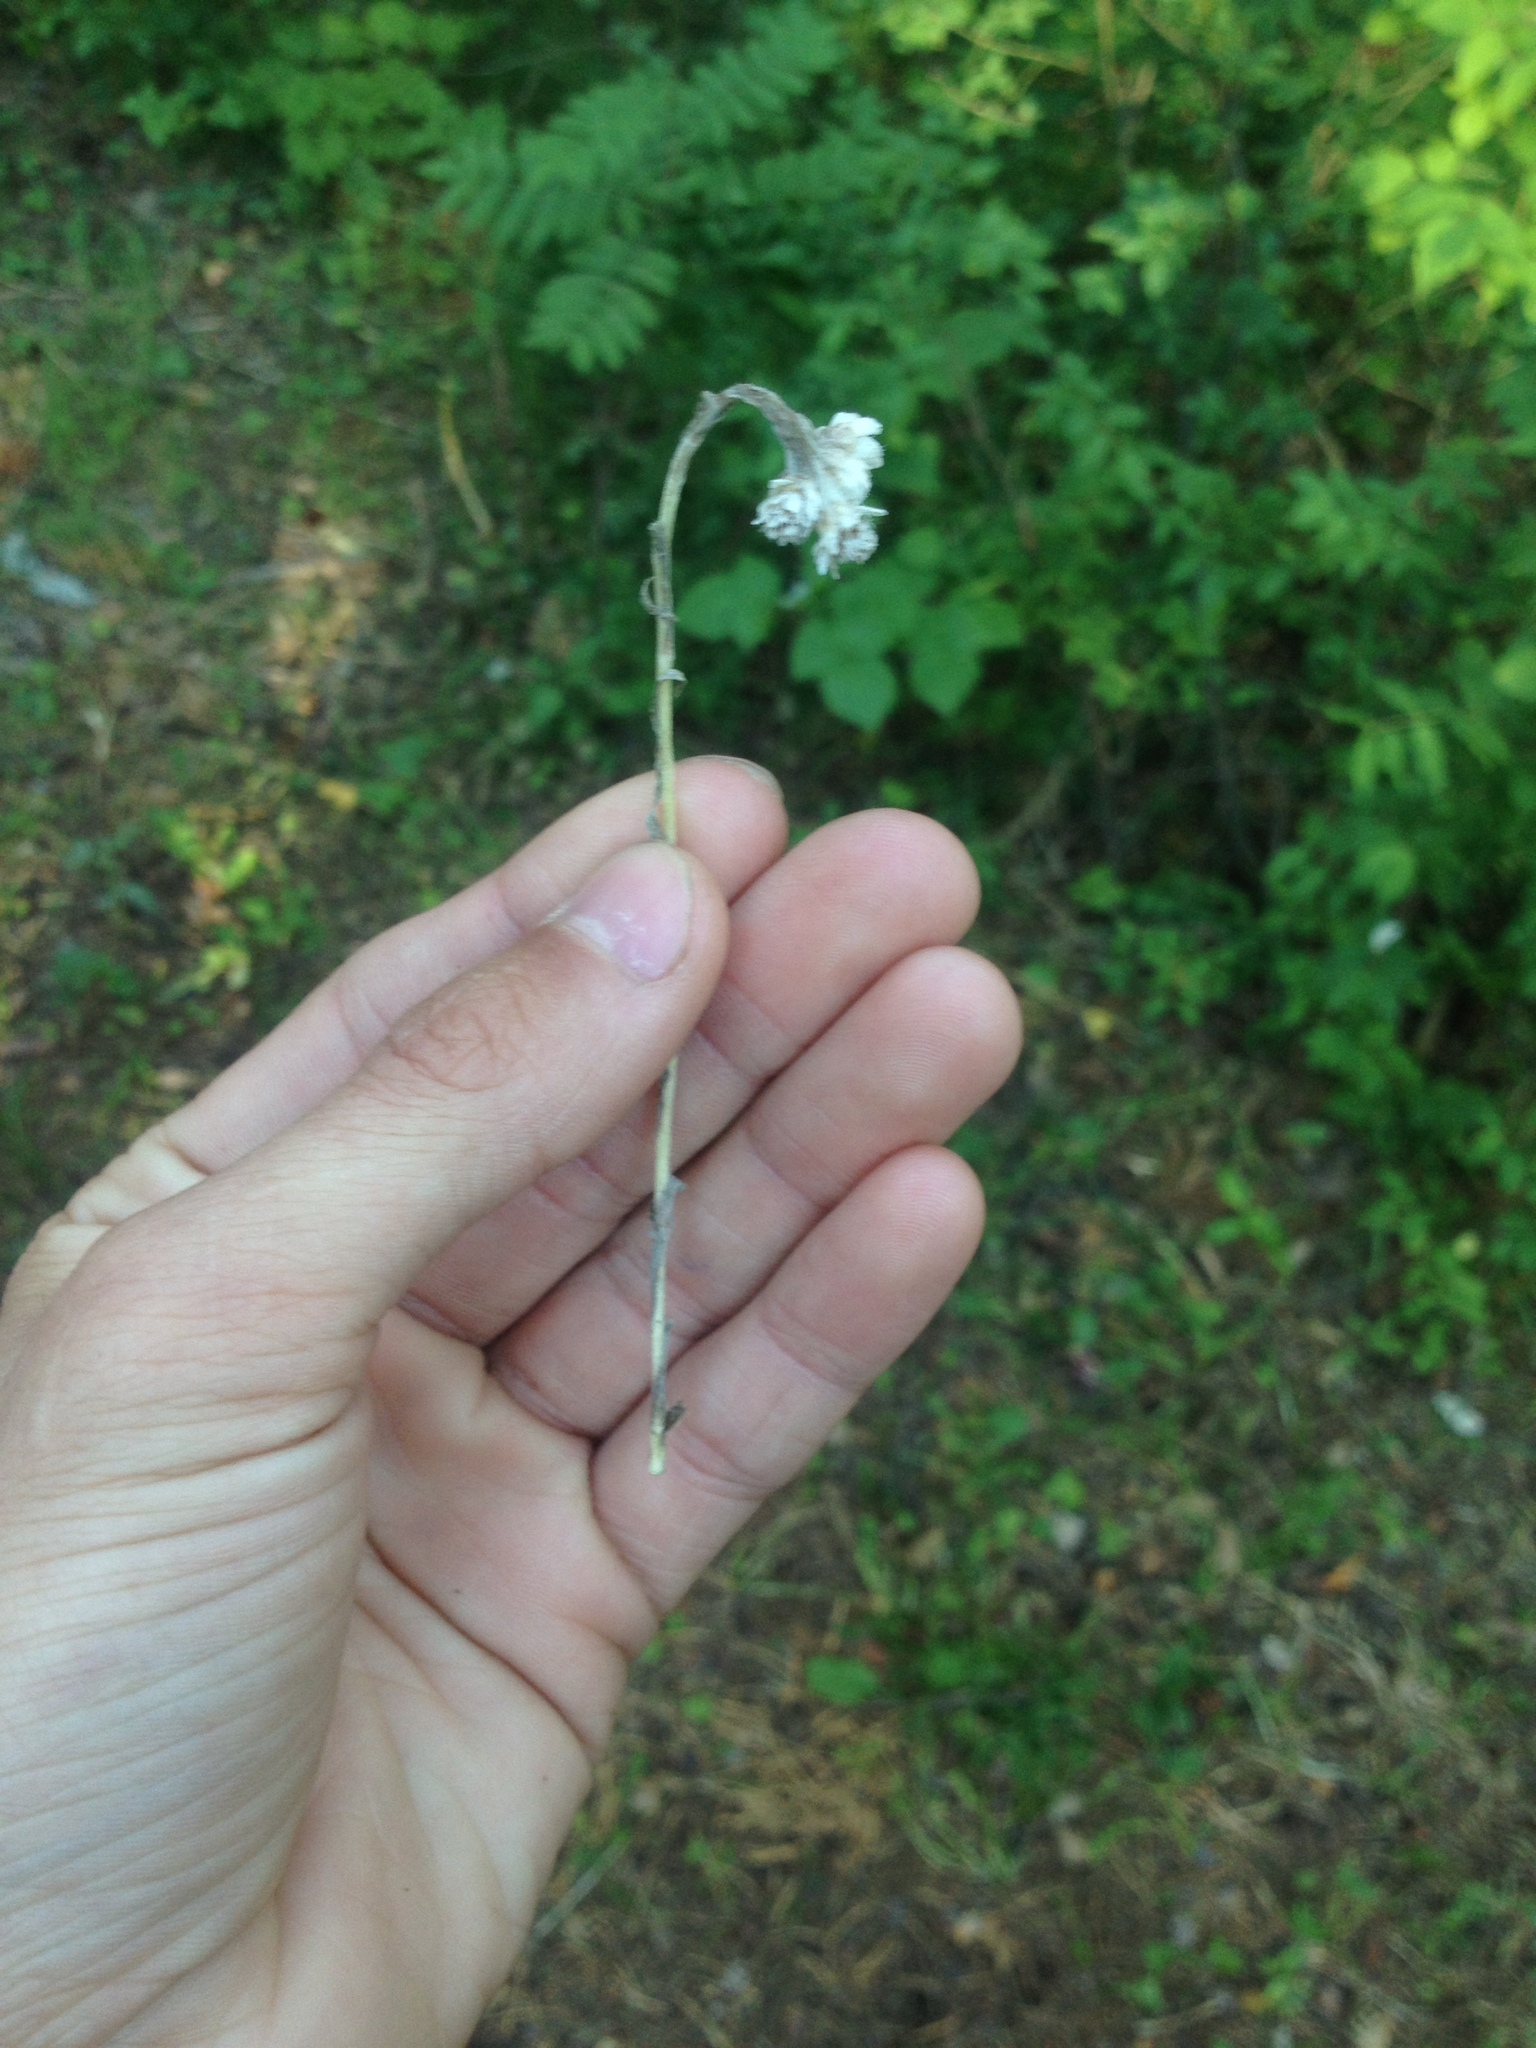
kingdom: Plantae
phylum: Tracheophyta
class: Magnoliopsida
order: Asterales
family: Asteraceae
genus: Antennaria
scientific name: Antennaria dioica
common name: Mountain everlasting
